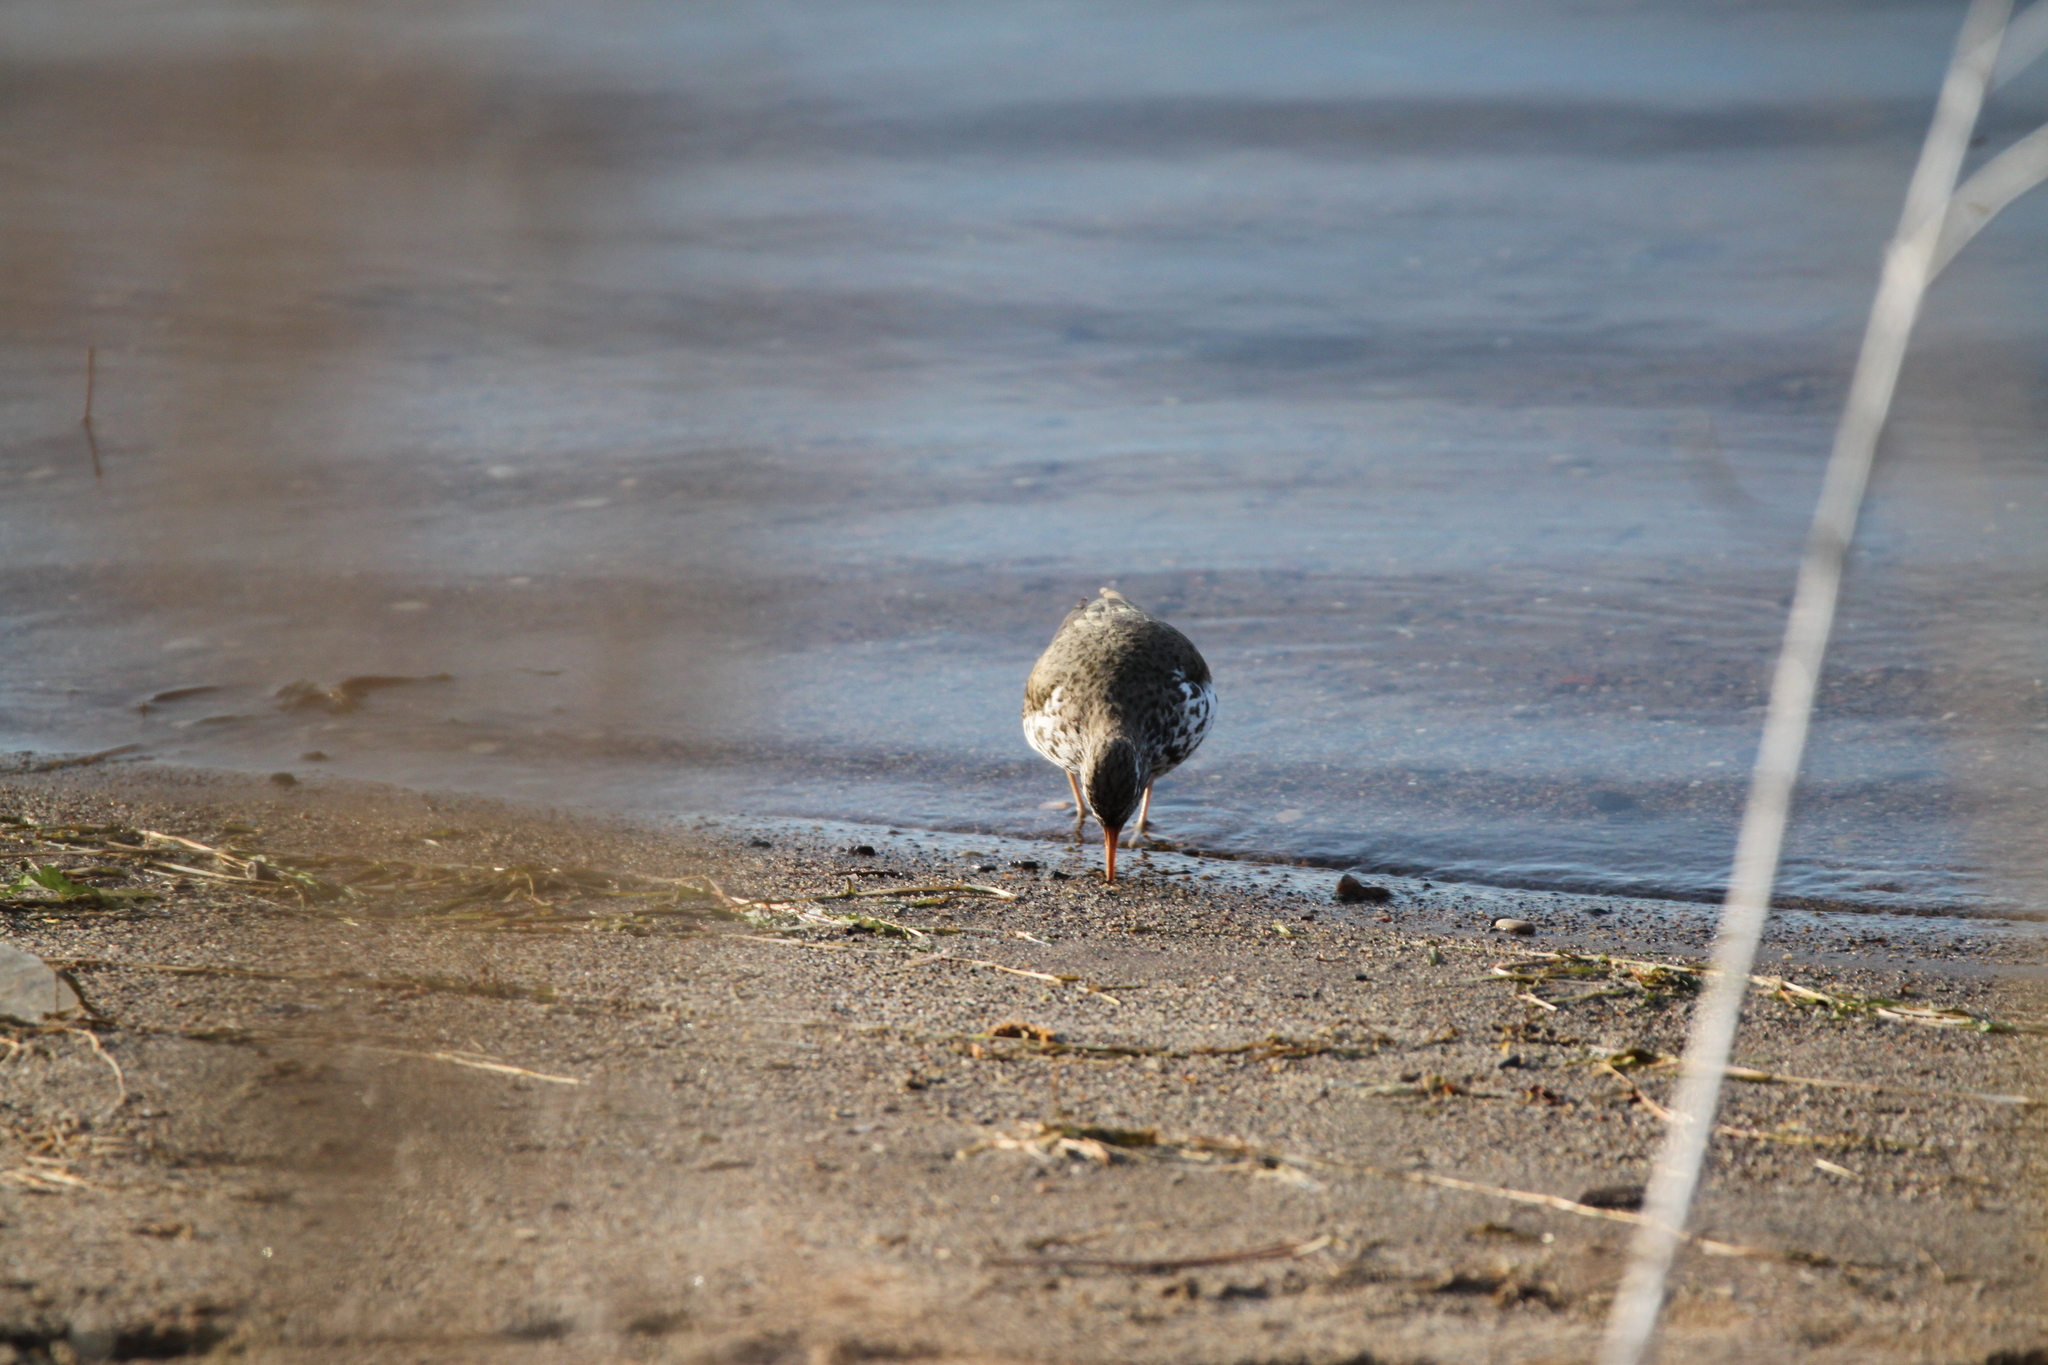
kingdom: Animalia
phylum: Chordata
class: Aves
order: Charadriiformes
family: Scolopacidae
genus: Actitis
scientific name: Actitis macularius
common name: Spotted sandpiper
